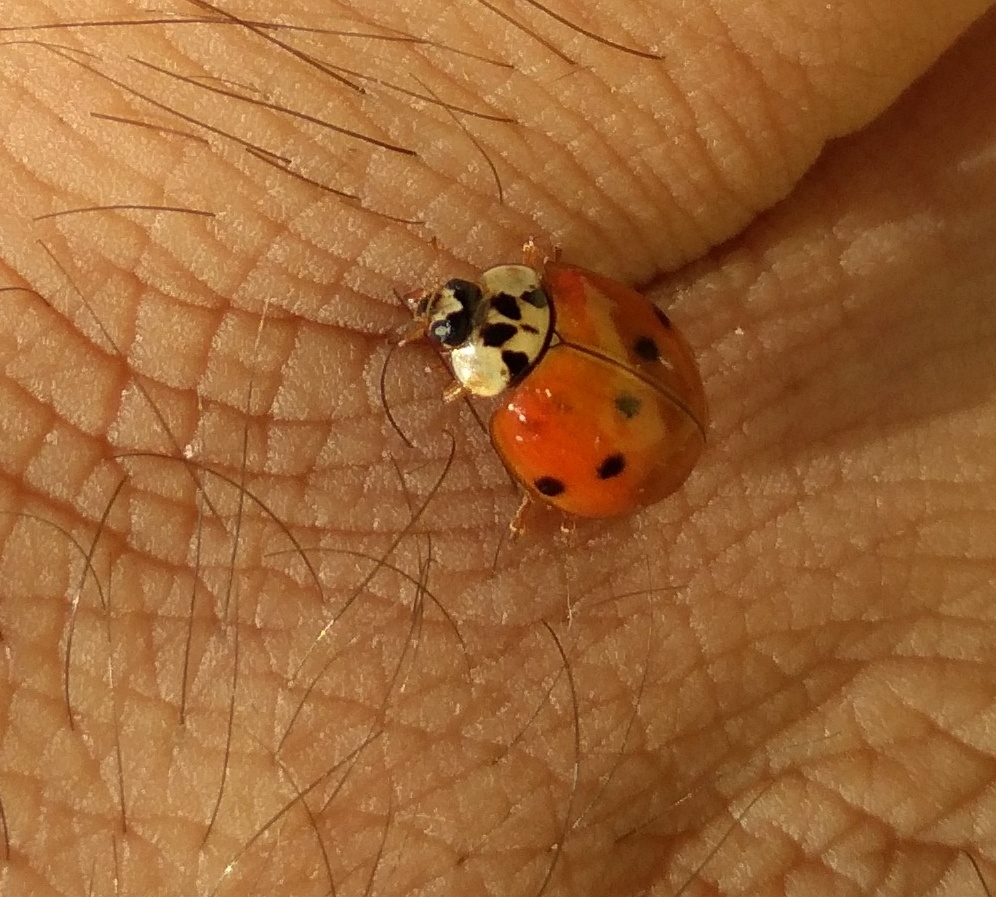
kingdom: Animalia
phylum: Arthropoda
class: Insecta
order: Coleoptera
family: Coccinellidae
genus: Harmonia
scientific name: Harmonia axyridis
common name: Harlequin ladybird
